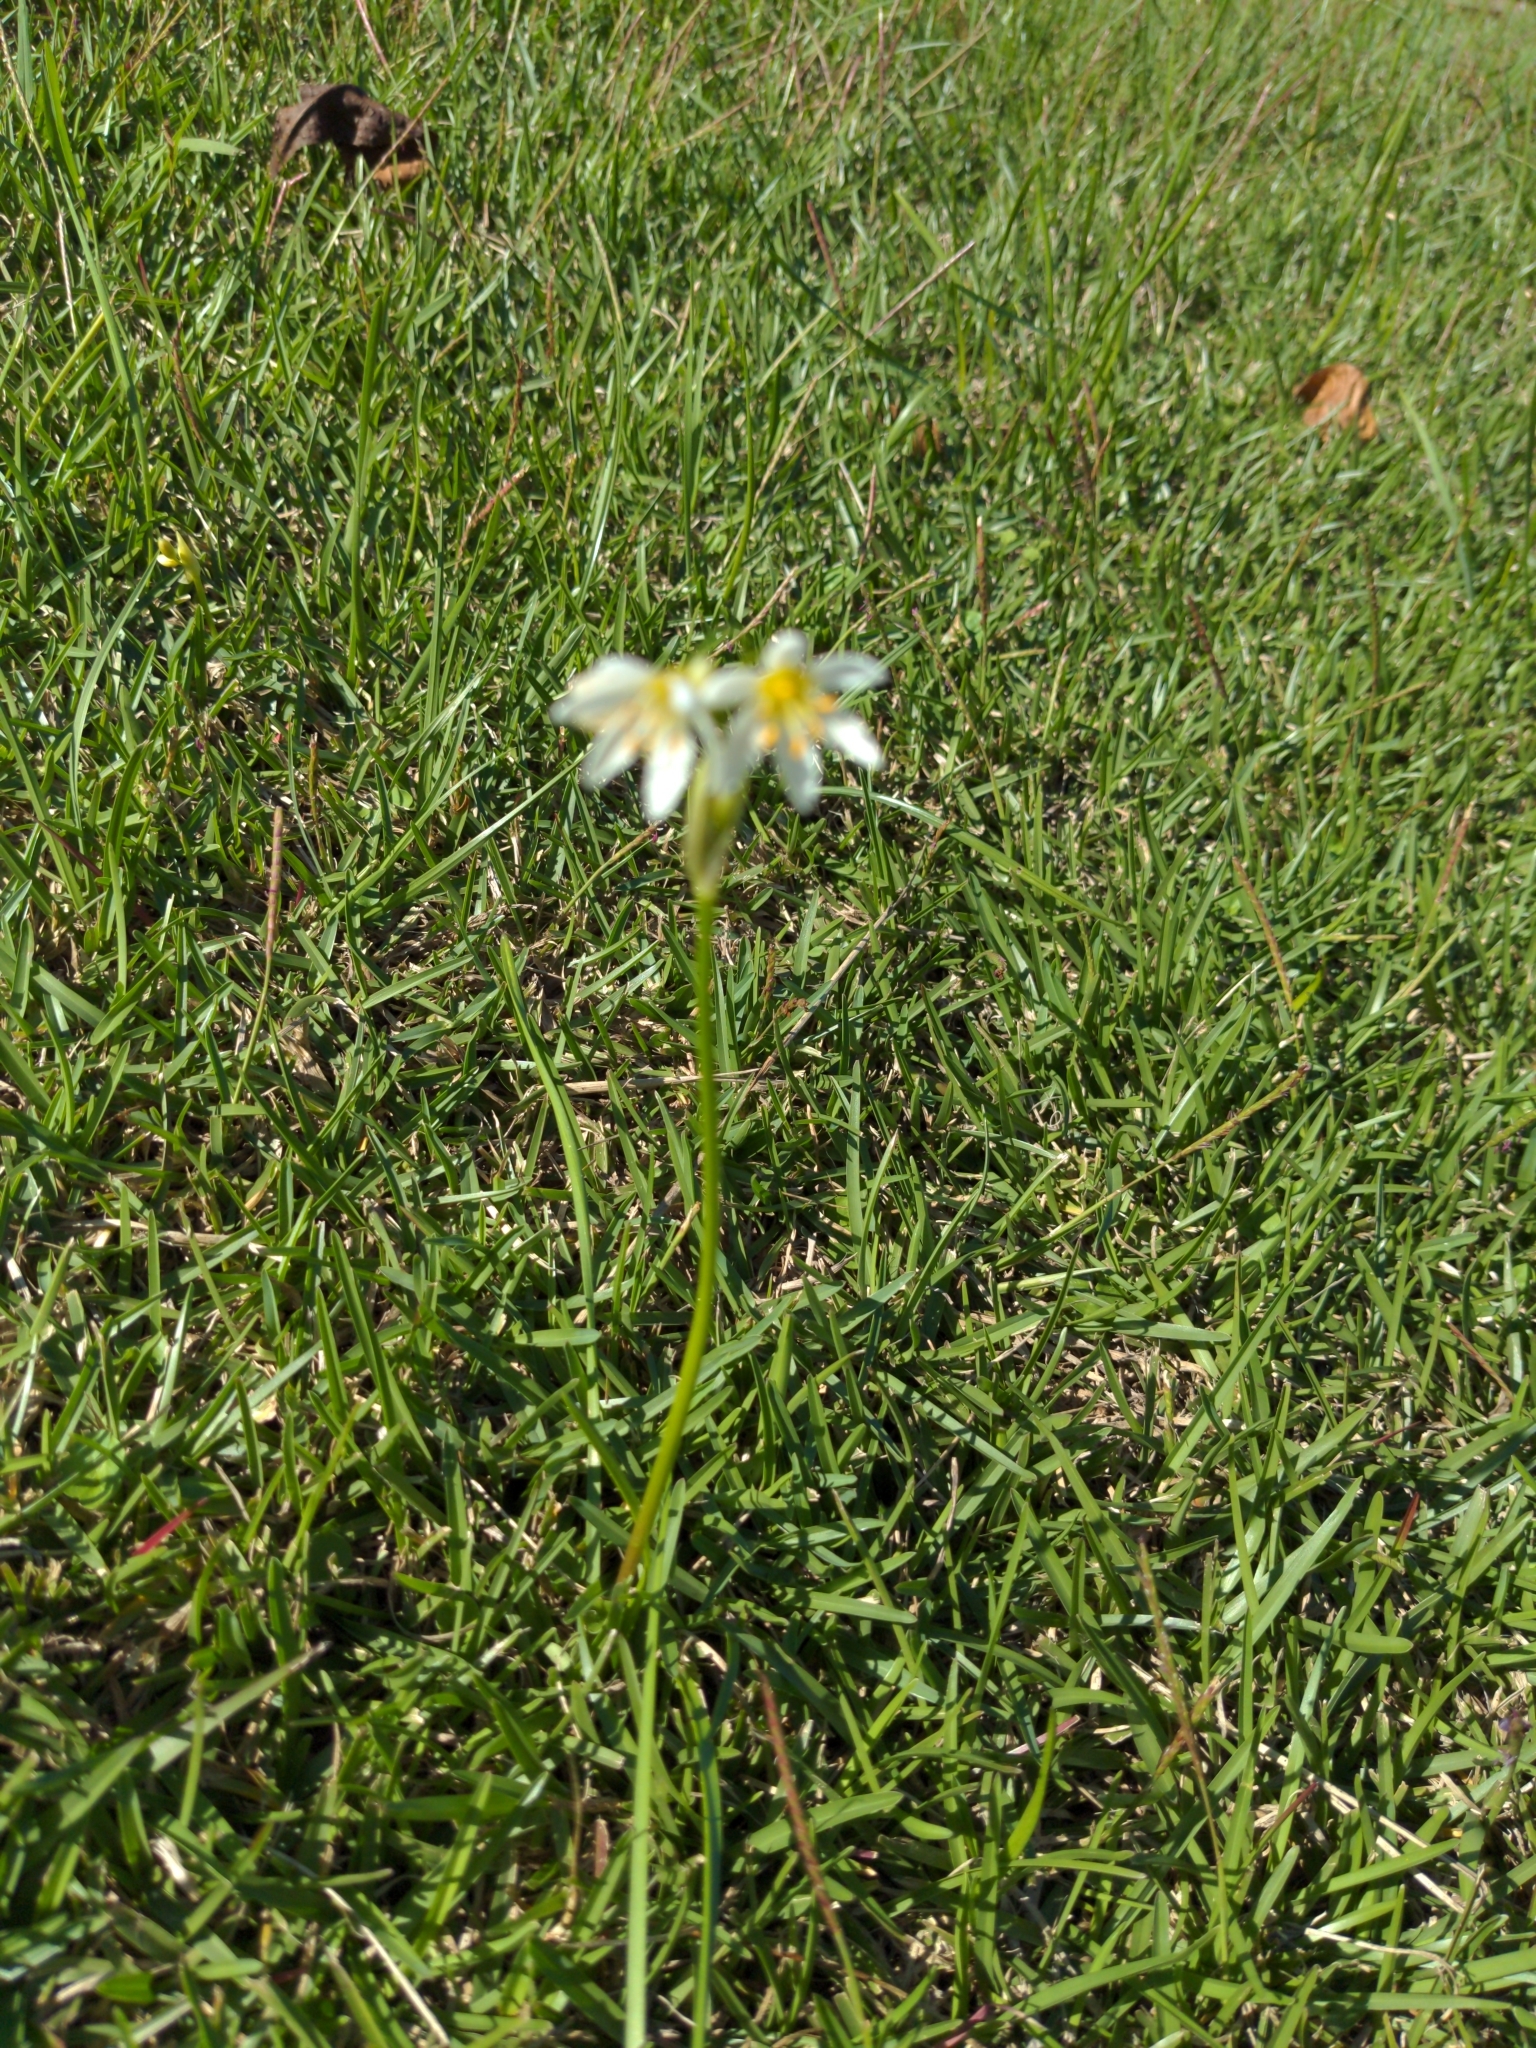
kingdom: Plantae
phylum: Tracheophyta
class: Liliopsida
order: Asparagales
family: Amaryllidaceae
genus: Nothoscordum
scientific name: Nothoscordum bivalve
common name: Crow-poison
